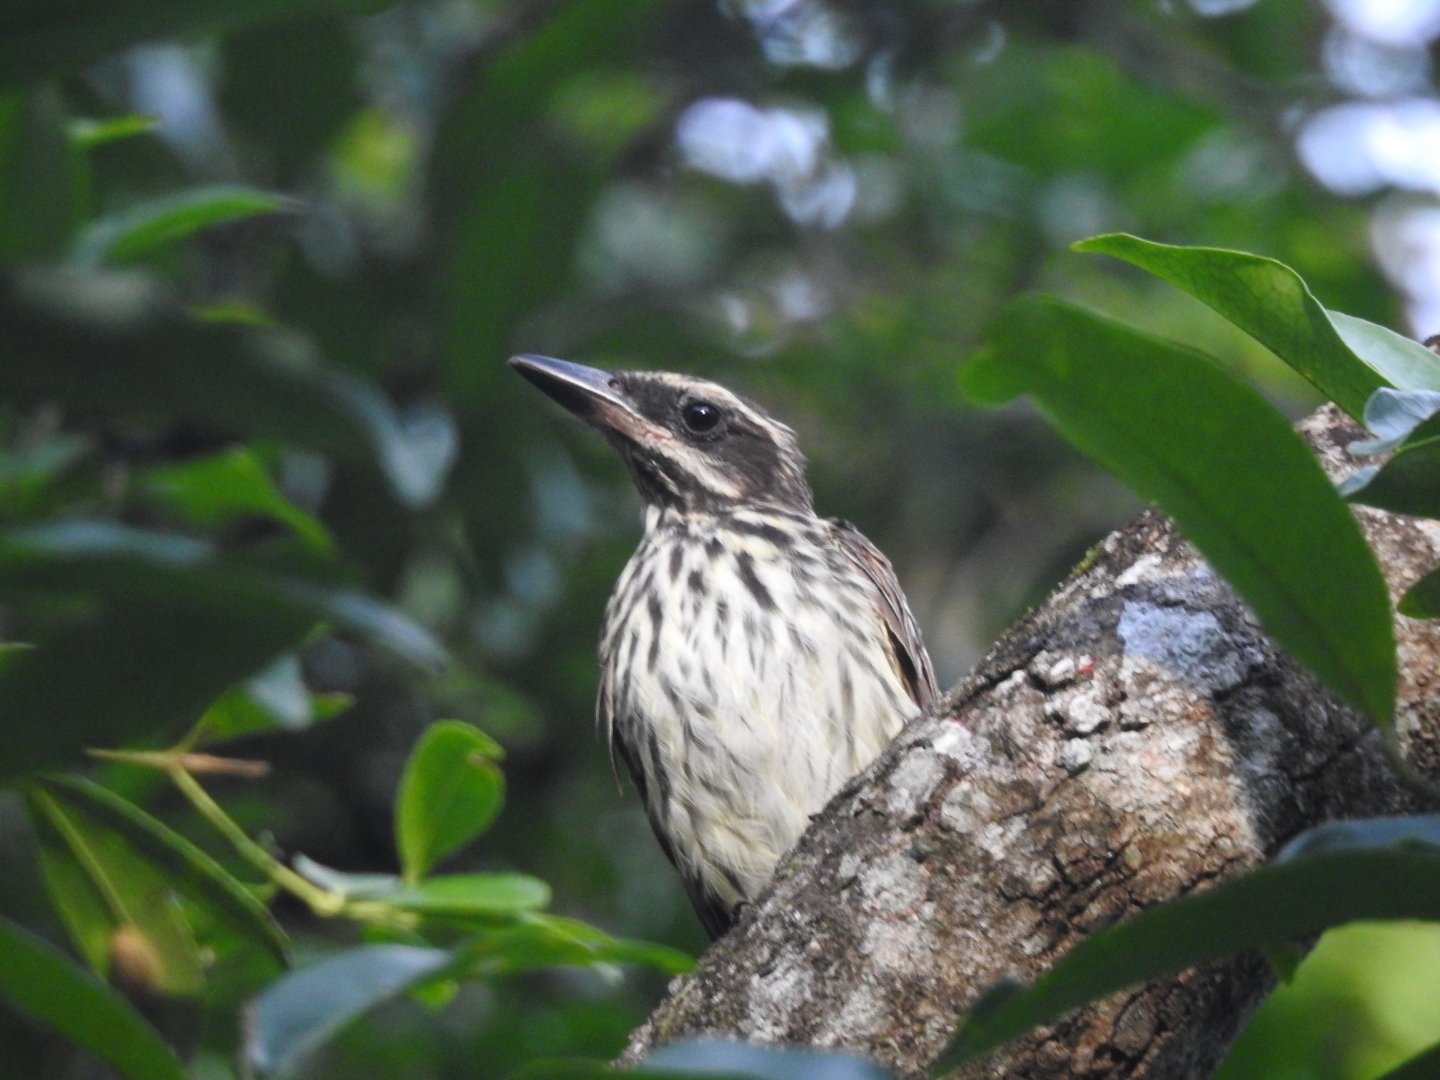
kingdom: Animalia
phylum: Chordata
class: Aves
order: Passeriformes
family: Tyrannidae
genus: Myiodynastes
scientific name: Myiodynastes maculatus
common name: Streaked flycatcher
